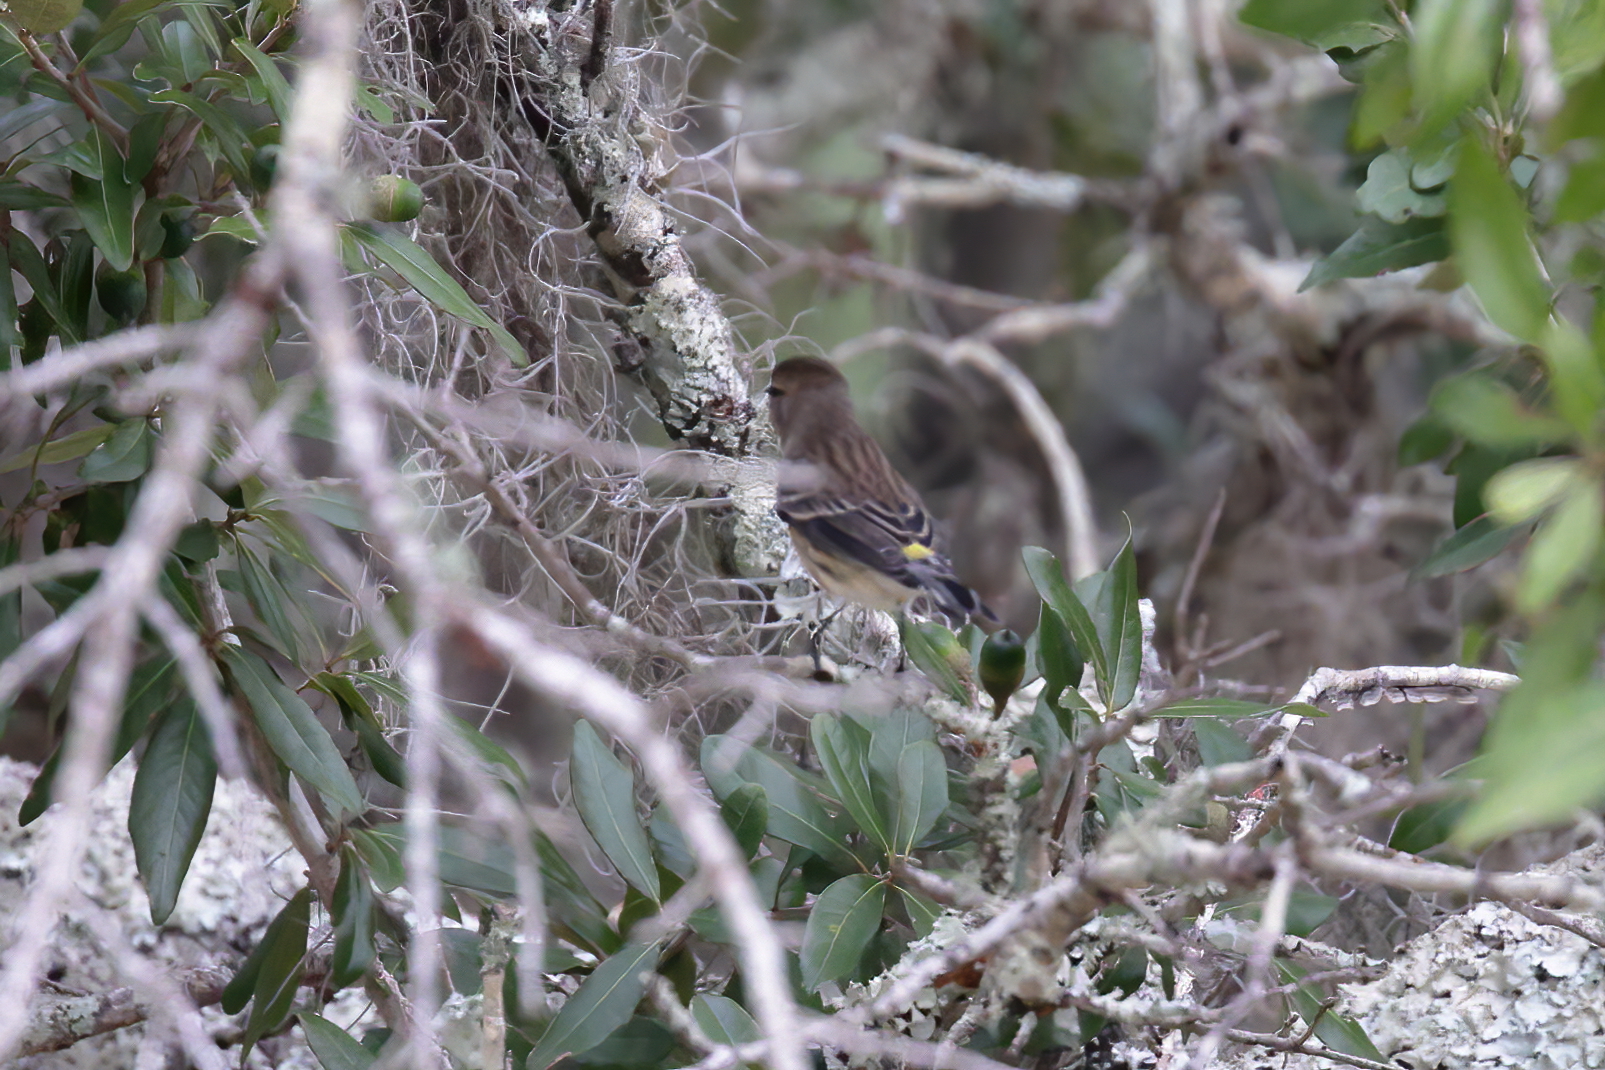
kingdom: Animalia
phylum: Chordata
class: Aves
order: Passeriformes
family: Parulidae
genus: Setophaga
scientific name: Setophaga coronata
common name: Myrtle warbler
